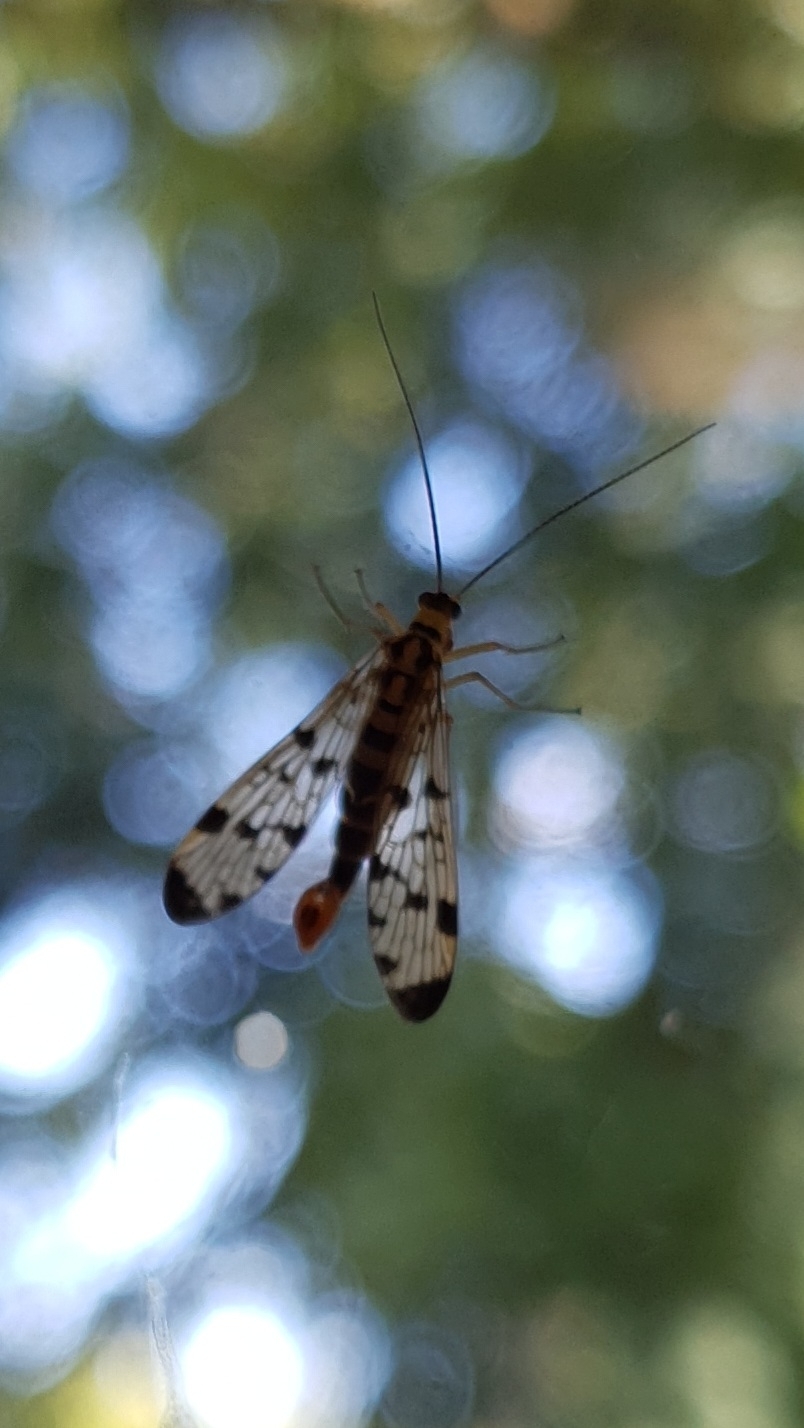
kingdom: Animalia
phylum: Arthropoda
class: Insecta
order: Mecoptera
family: Panorpidae
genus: Panorpa
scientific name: Panorpa germanica
